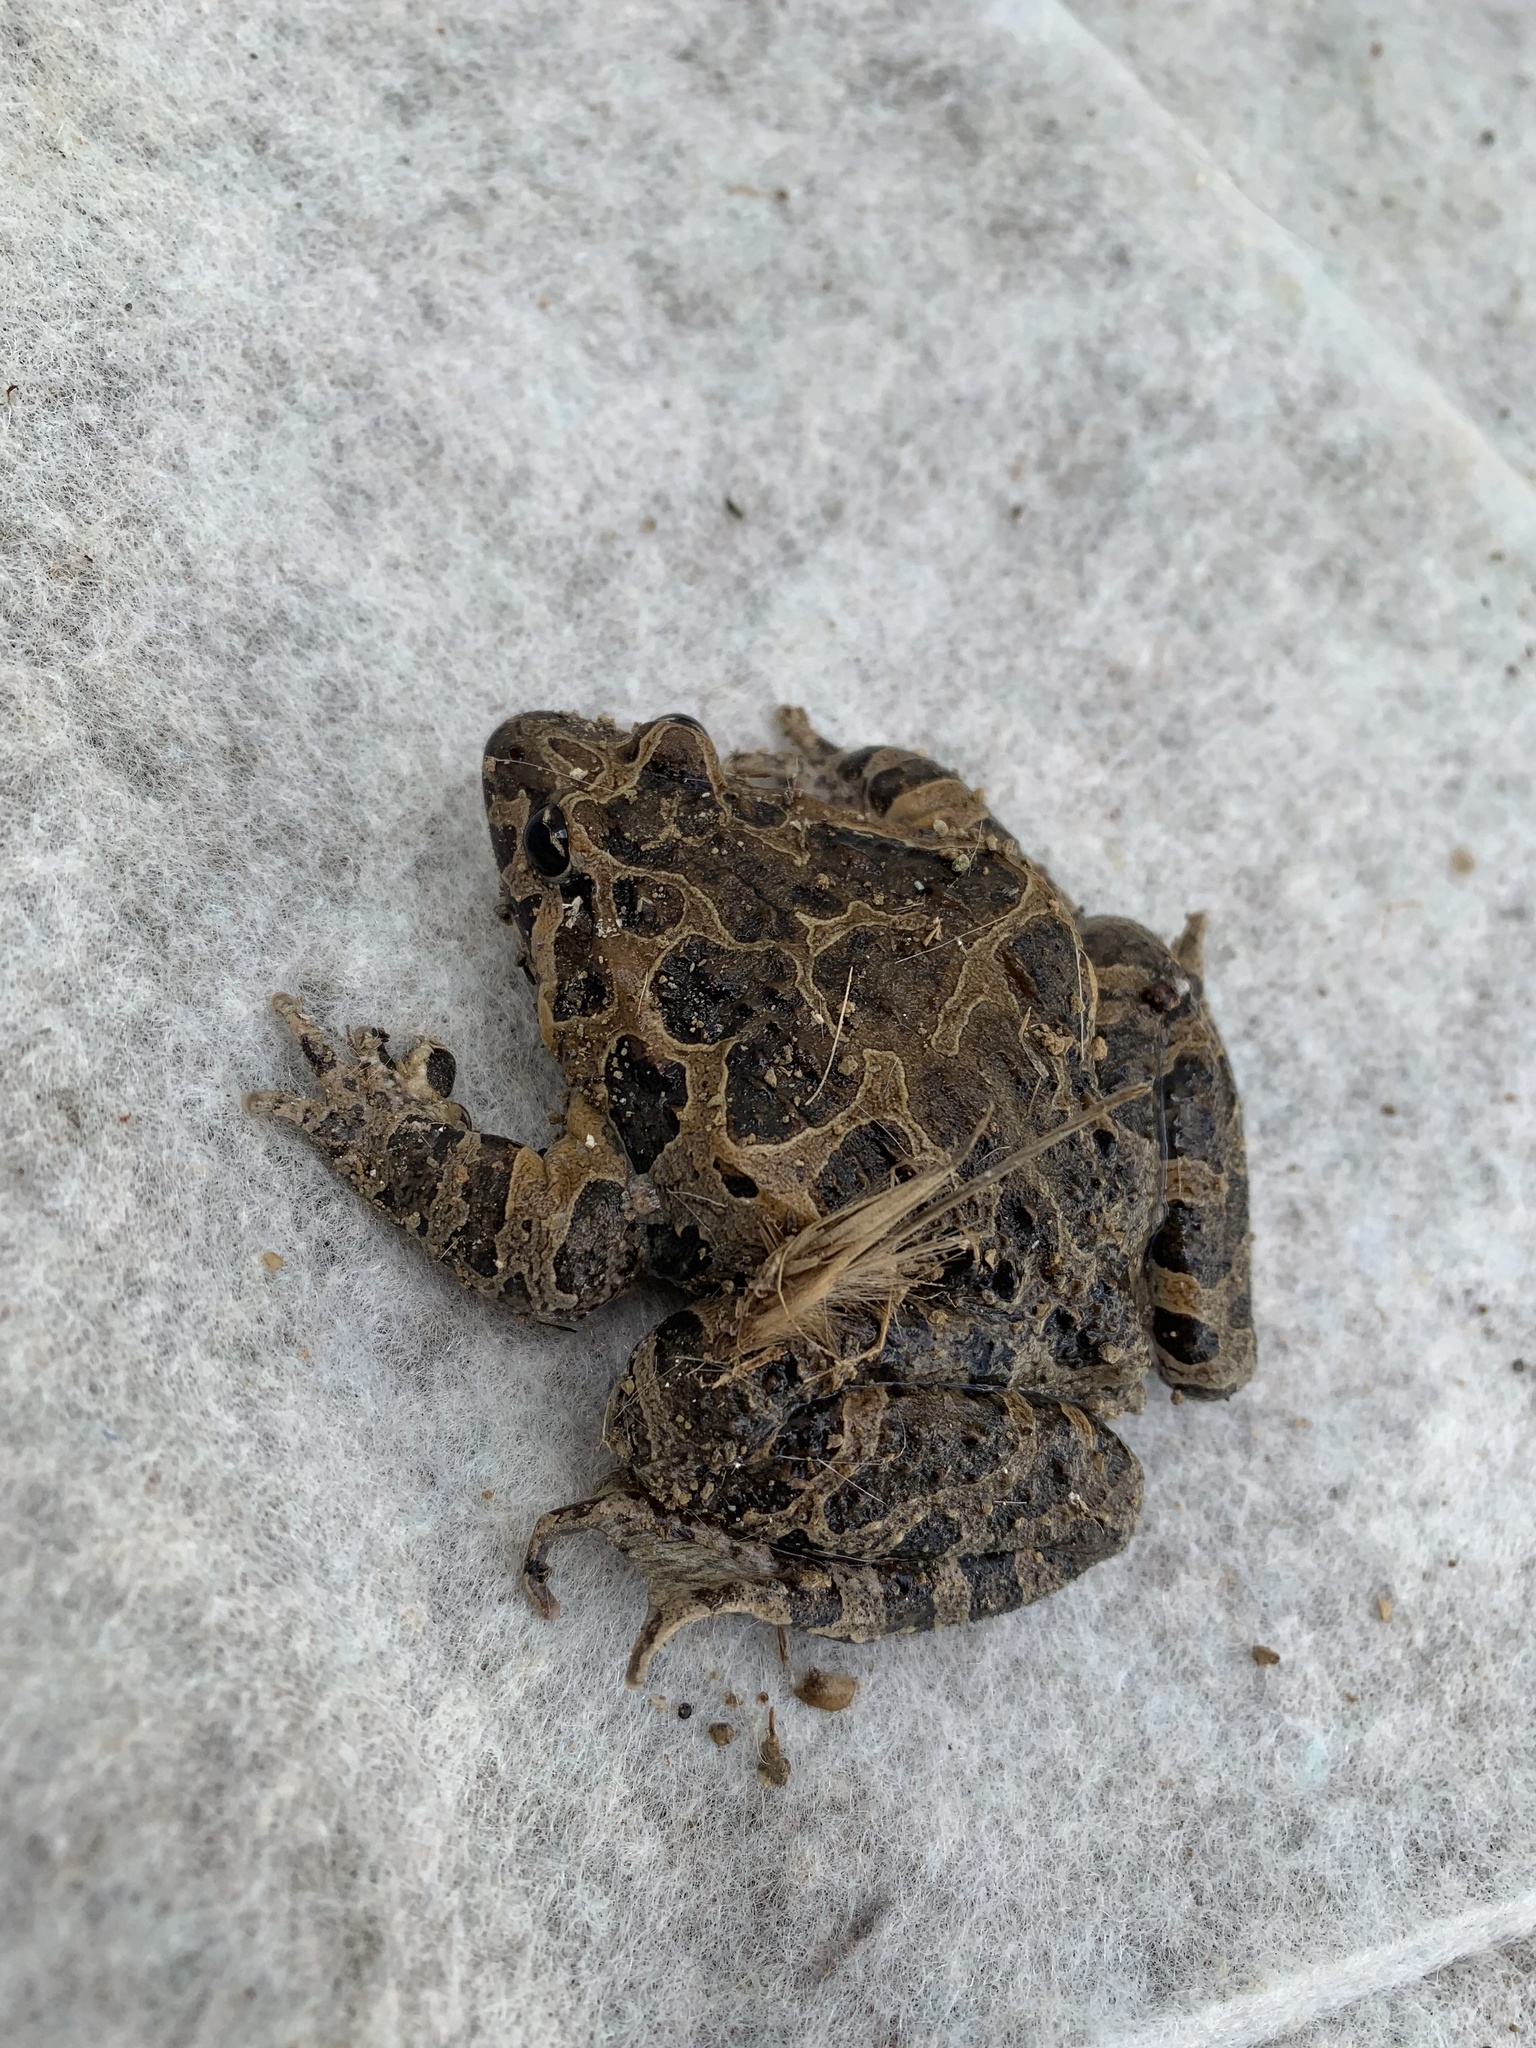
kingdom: Animalia
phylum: Chordata
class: Amphibia
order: Anura
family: Alytidae
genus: Discoglossus
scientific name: Discoglossus pictus
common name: Painted frog
